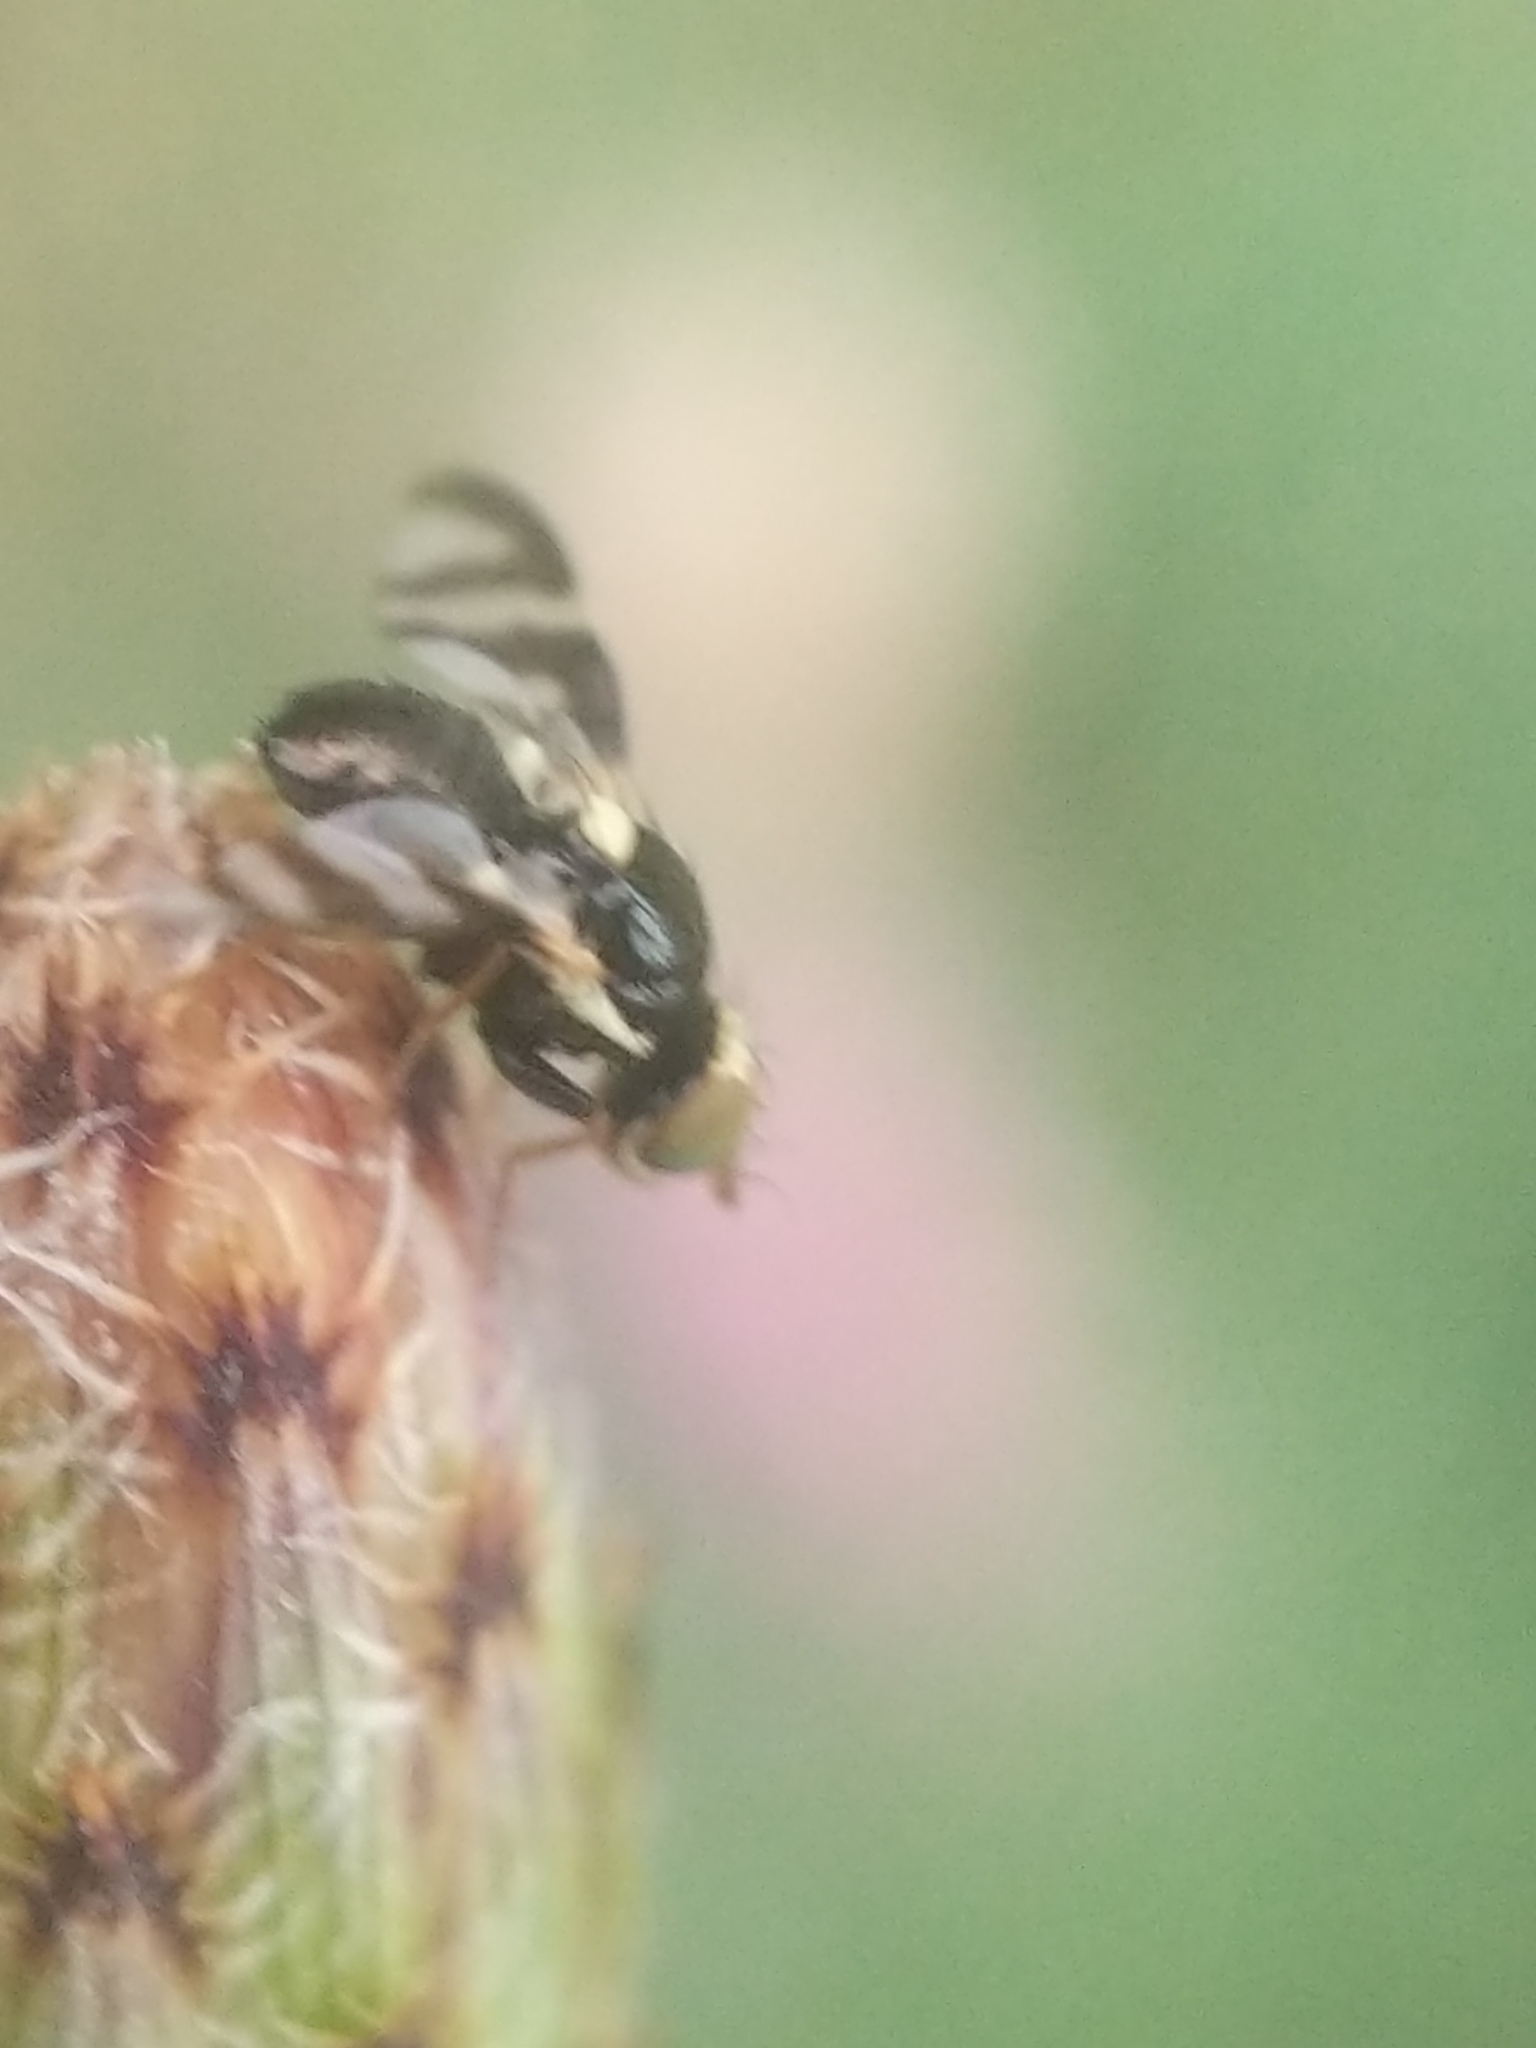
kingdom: Animalia
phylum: Arthropoda
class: Insecta
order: Diptera
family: Tephritidae
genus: Urophora
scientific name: Urophora quadrifasciata
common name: Knapweed seedhead fly
